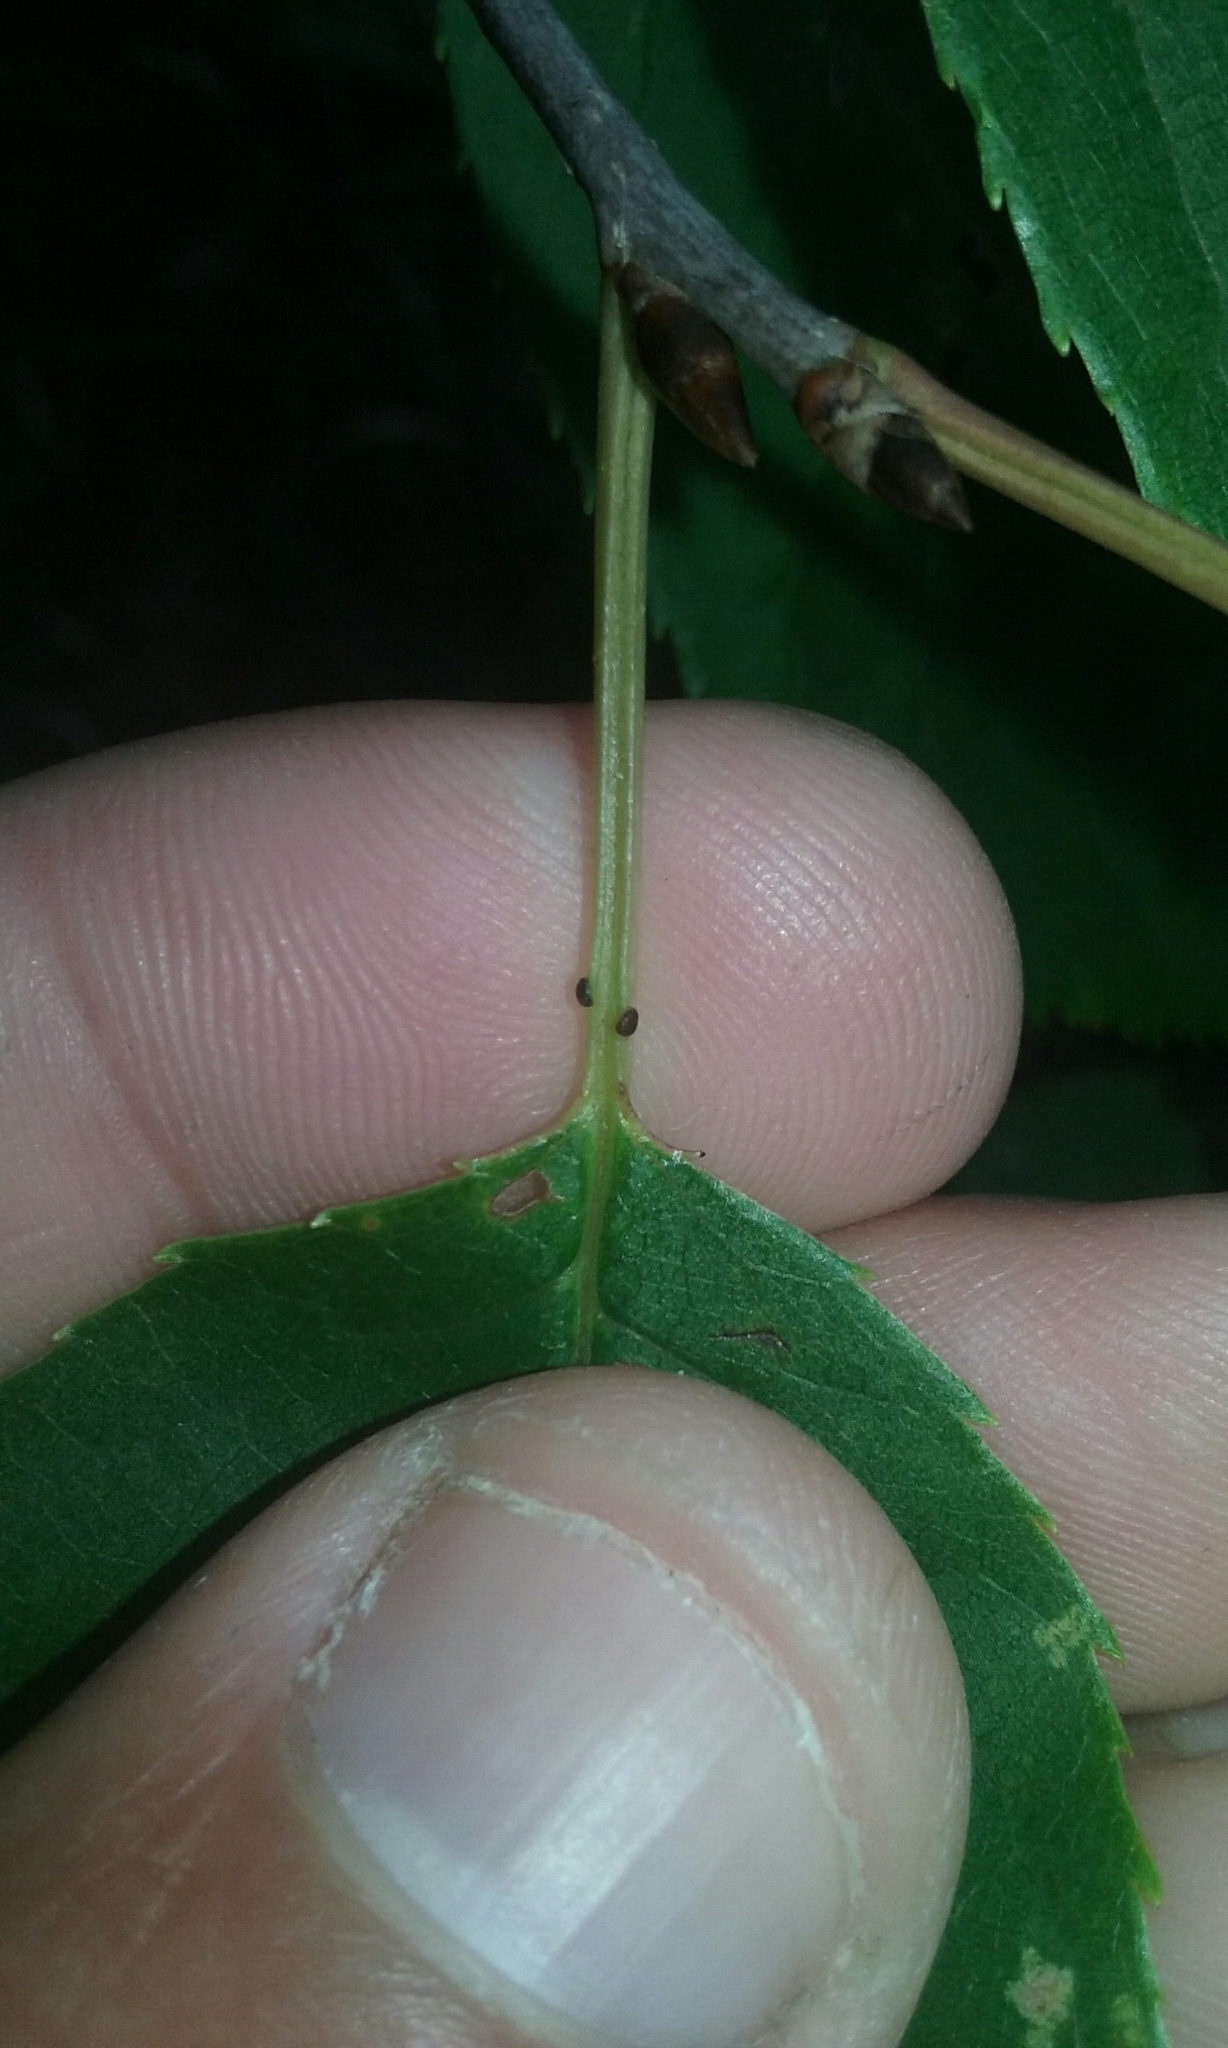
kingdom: Plantae
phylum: Tracheophyta
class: Magnoliopsida
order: Rosales
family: Rosaceae
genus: Prunus
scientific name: Prunus virginiana
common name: Chokecherry
